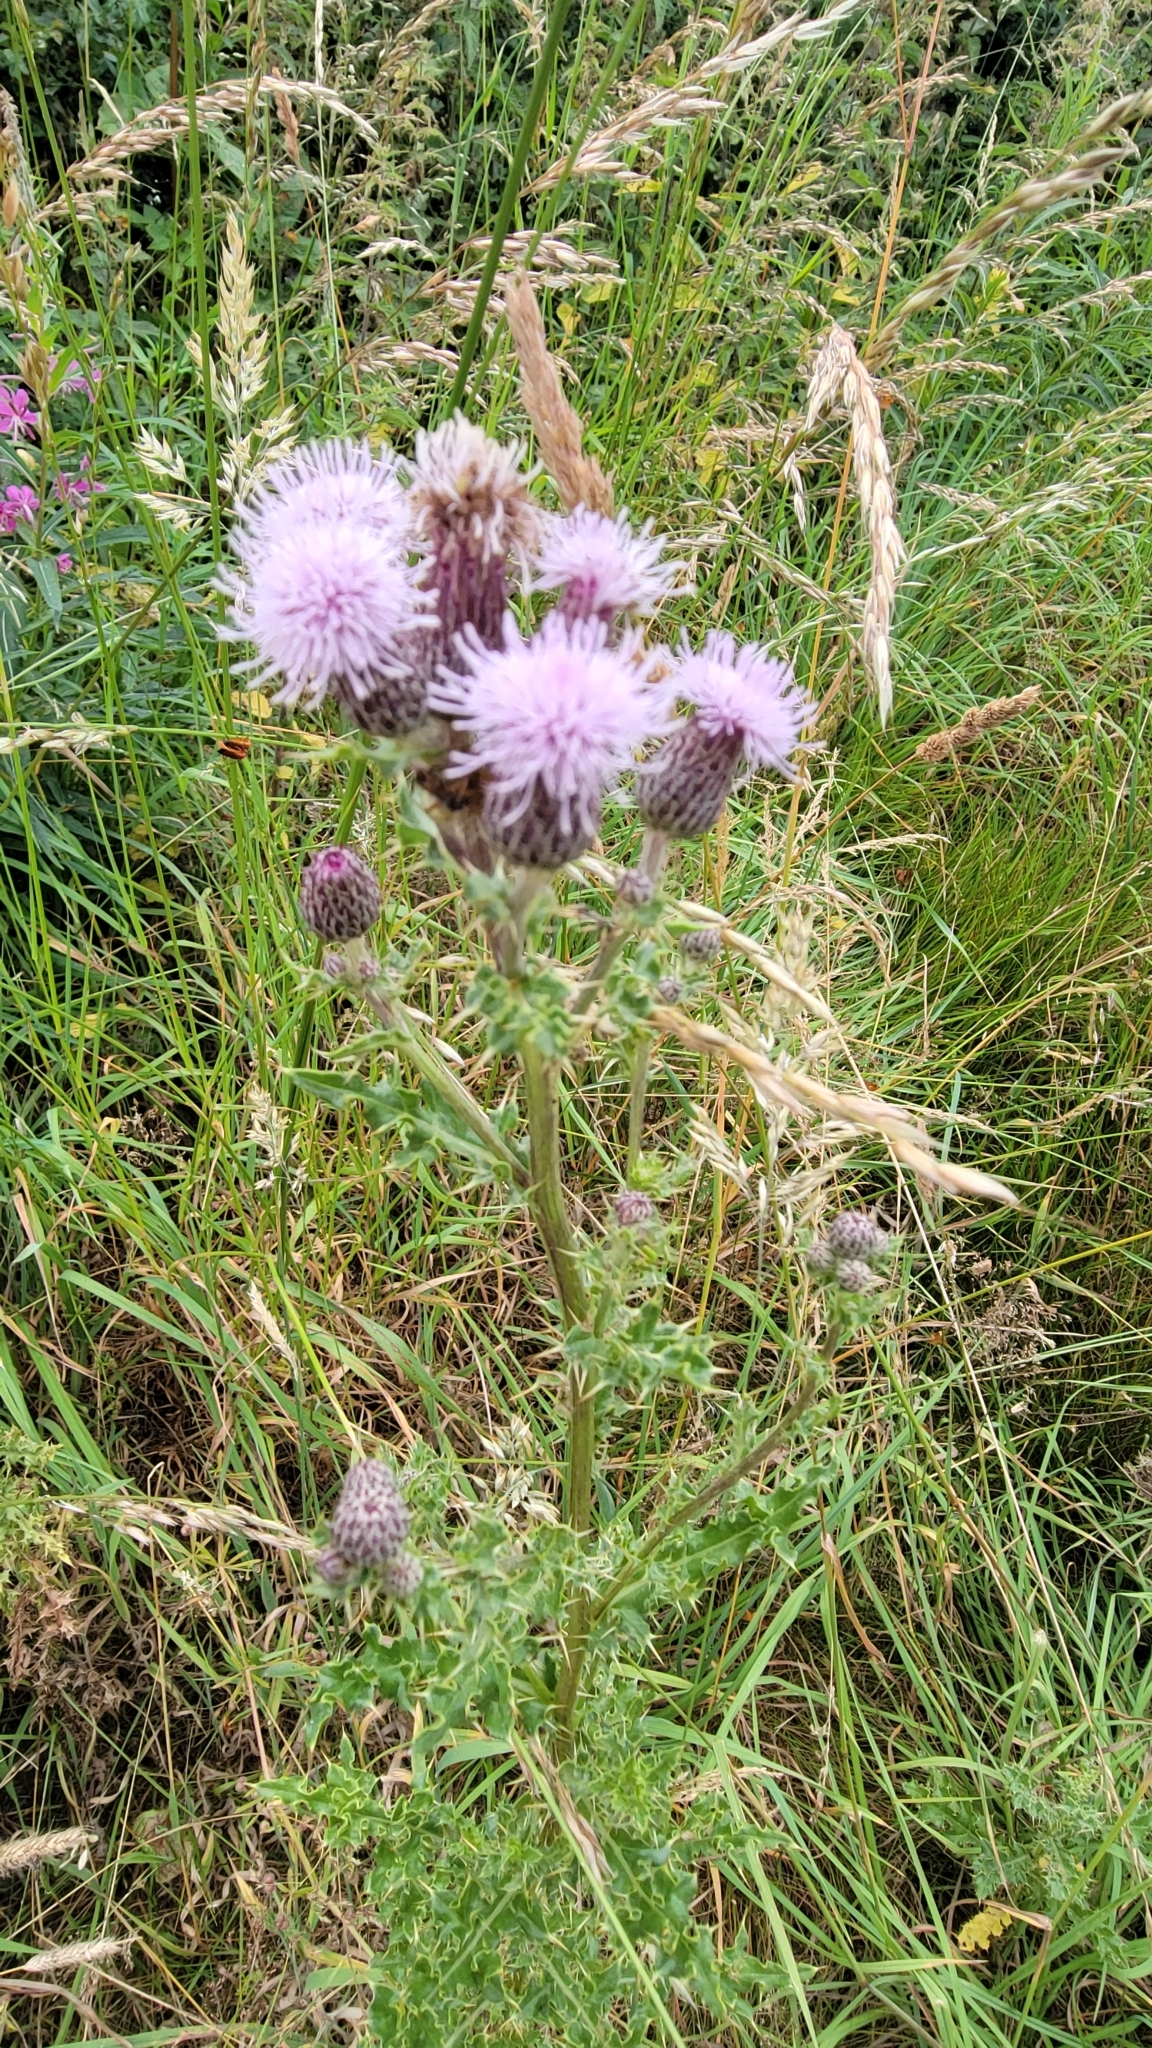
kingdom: Plantae
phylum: Tracheophyta
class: Magnoliopsida
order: Asterales
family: Asteraceae
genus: Cirsium
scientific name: Cirsium arvense
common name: Creeping thistle
